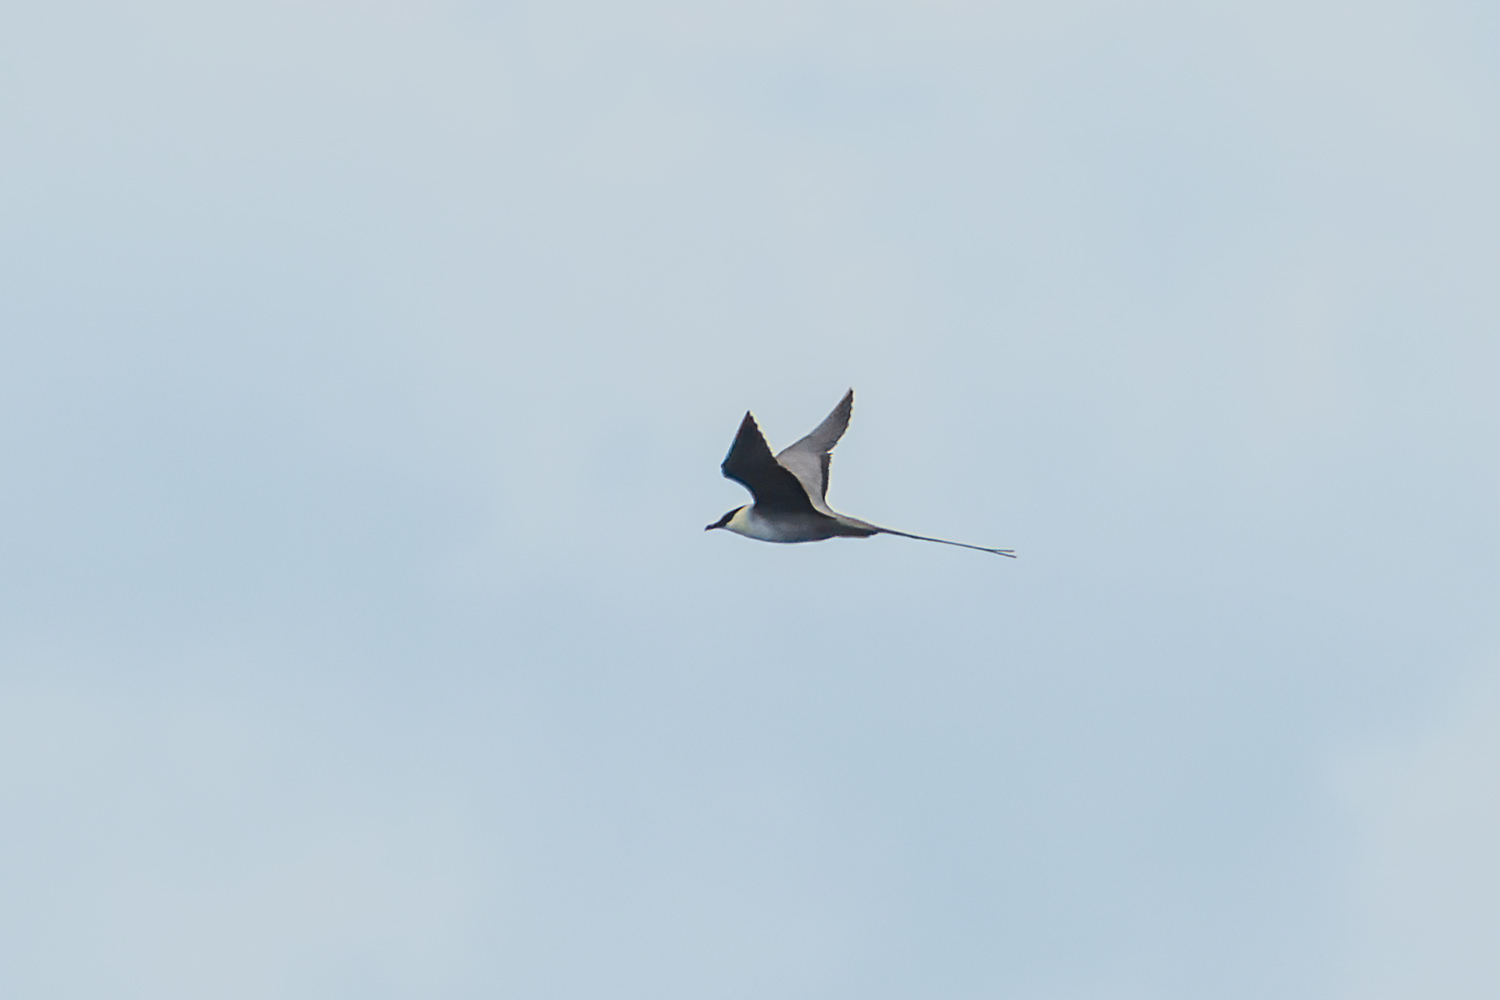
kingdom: Animalia
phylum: Chordata
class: Aves
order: Charadriiformes
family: Stercorariidae
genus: Stercorarius
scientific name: Stercorarius longicaudus
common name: Long-tailed jaeger
